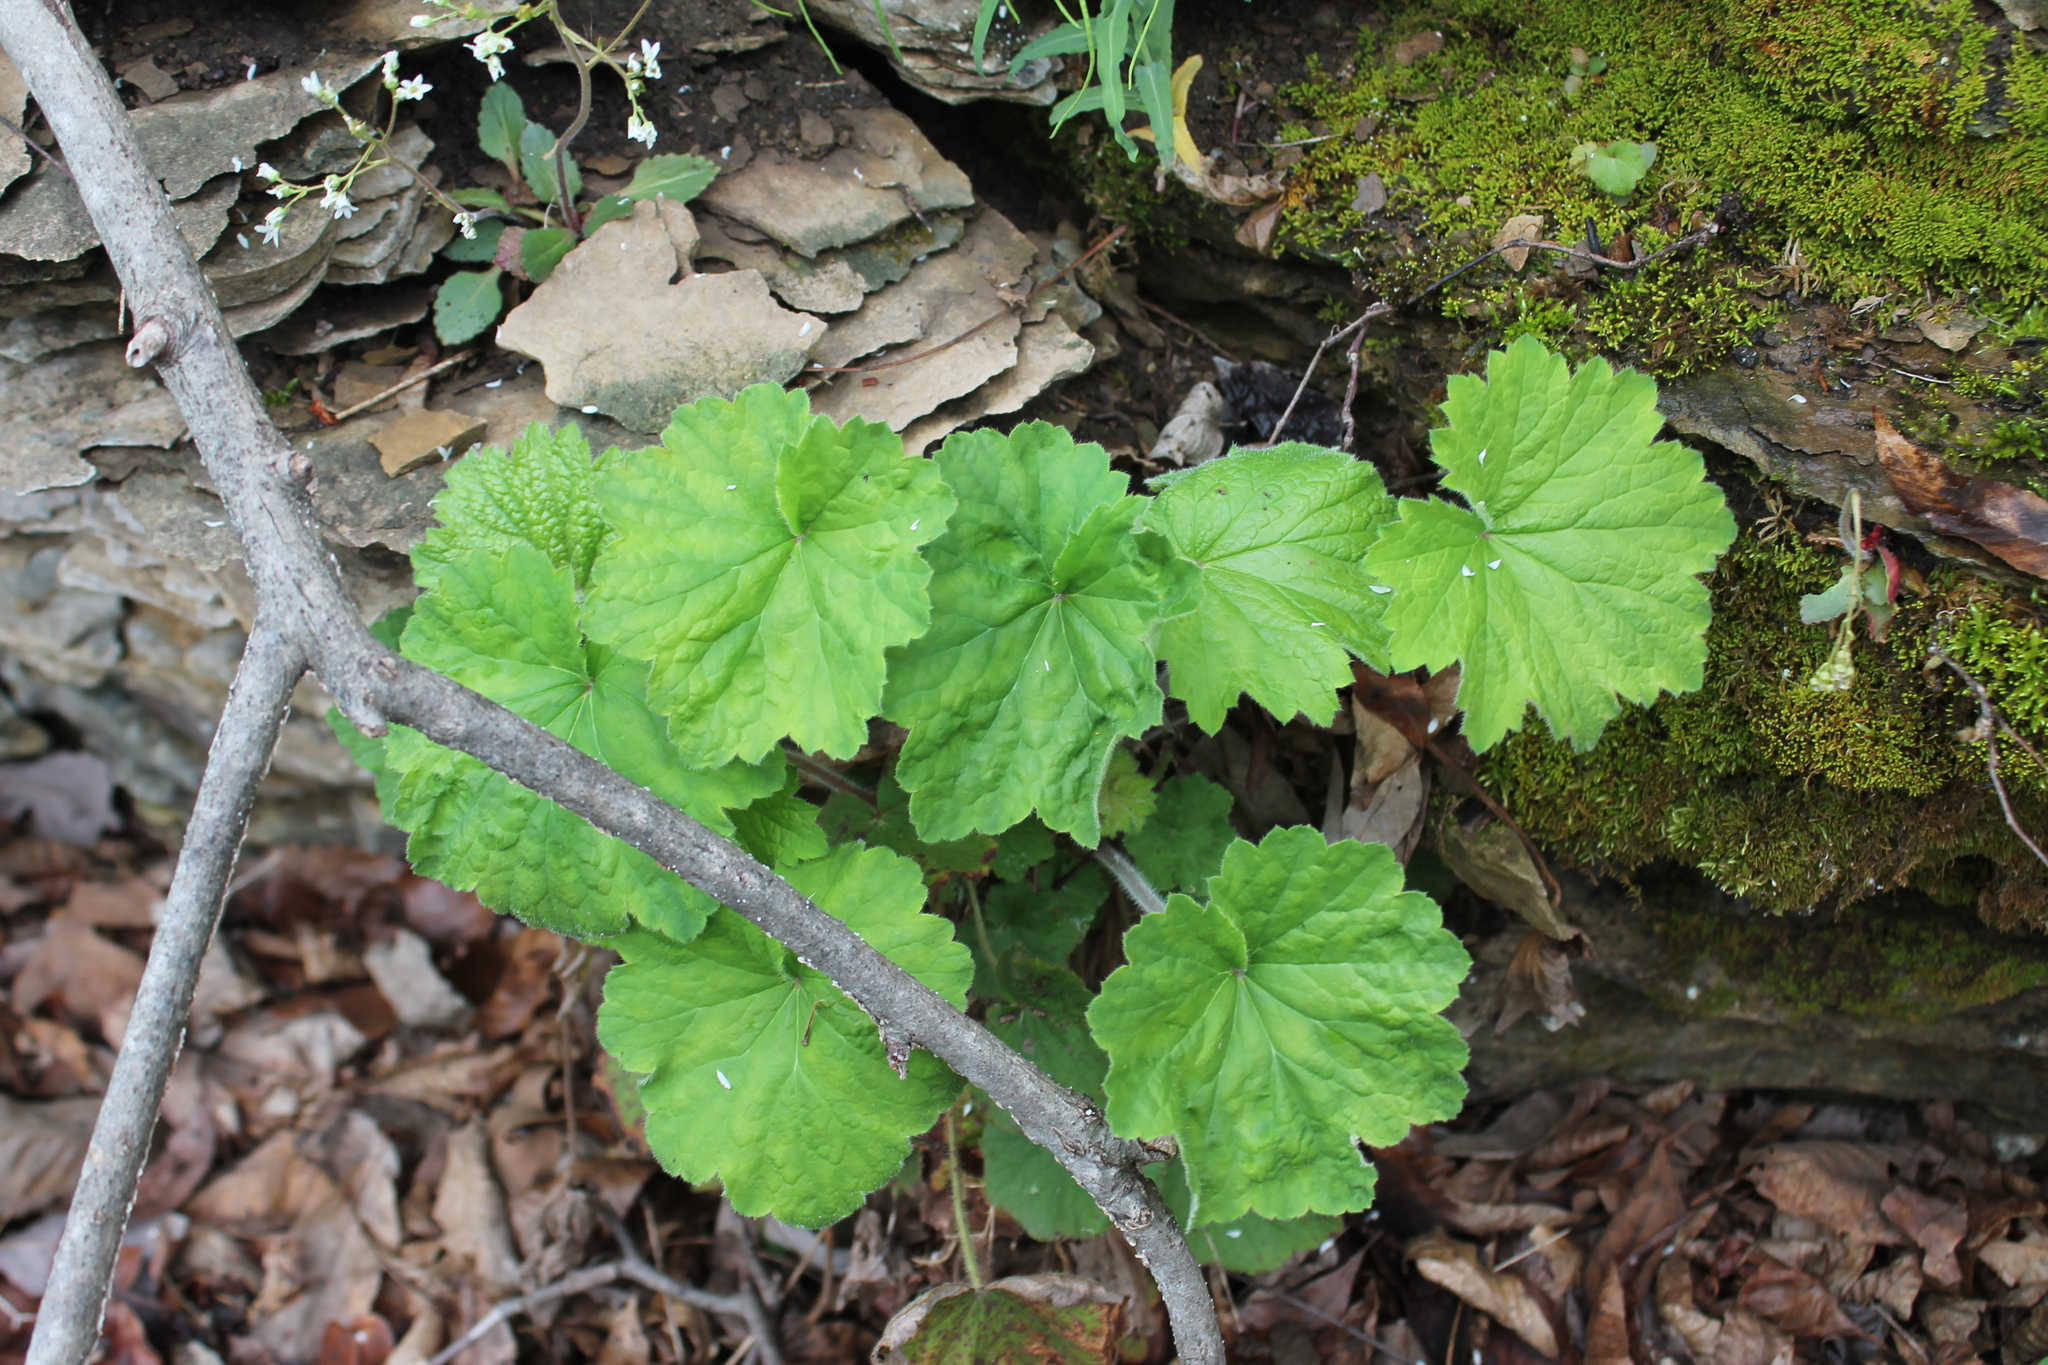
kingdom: Plantae
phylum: Tracheophyta
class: Magnoliopsida
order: Saxifragales
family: Saxifragaceae
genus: Heuchera
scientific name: Heuchera villosa
